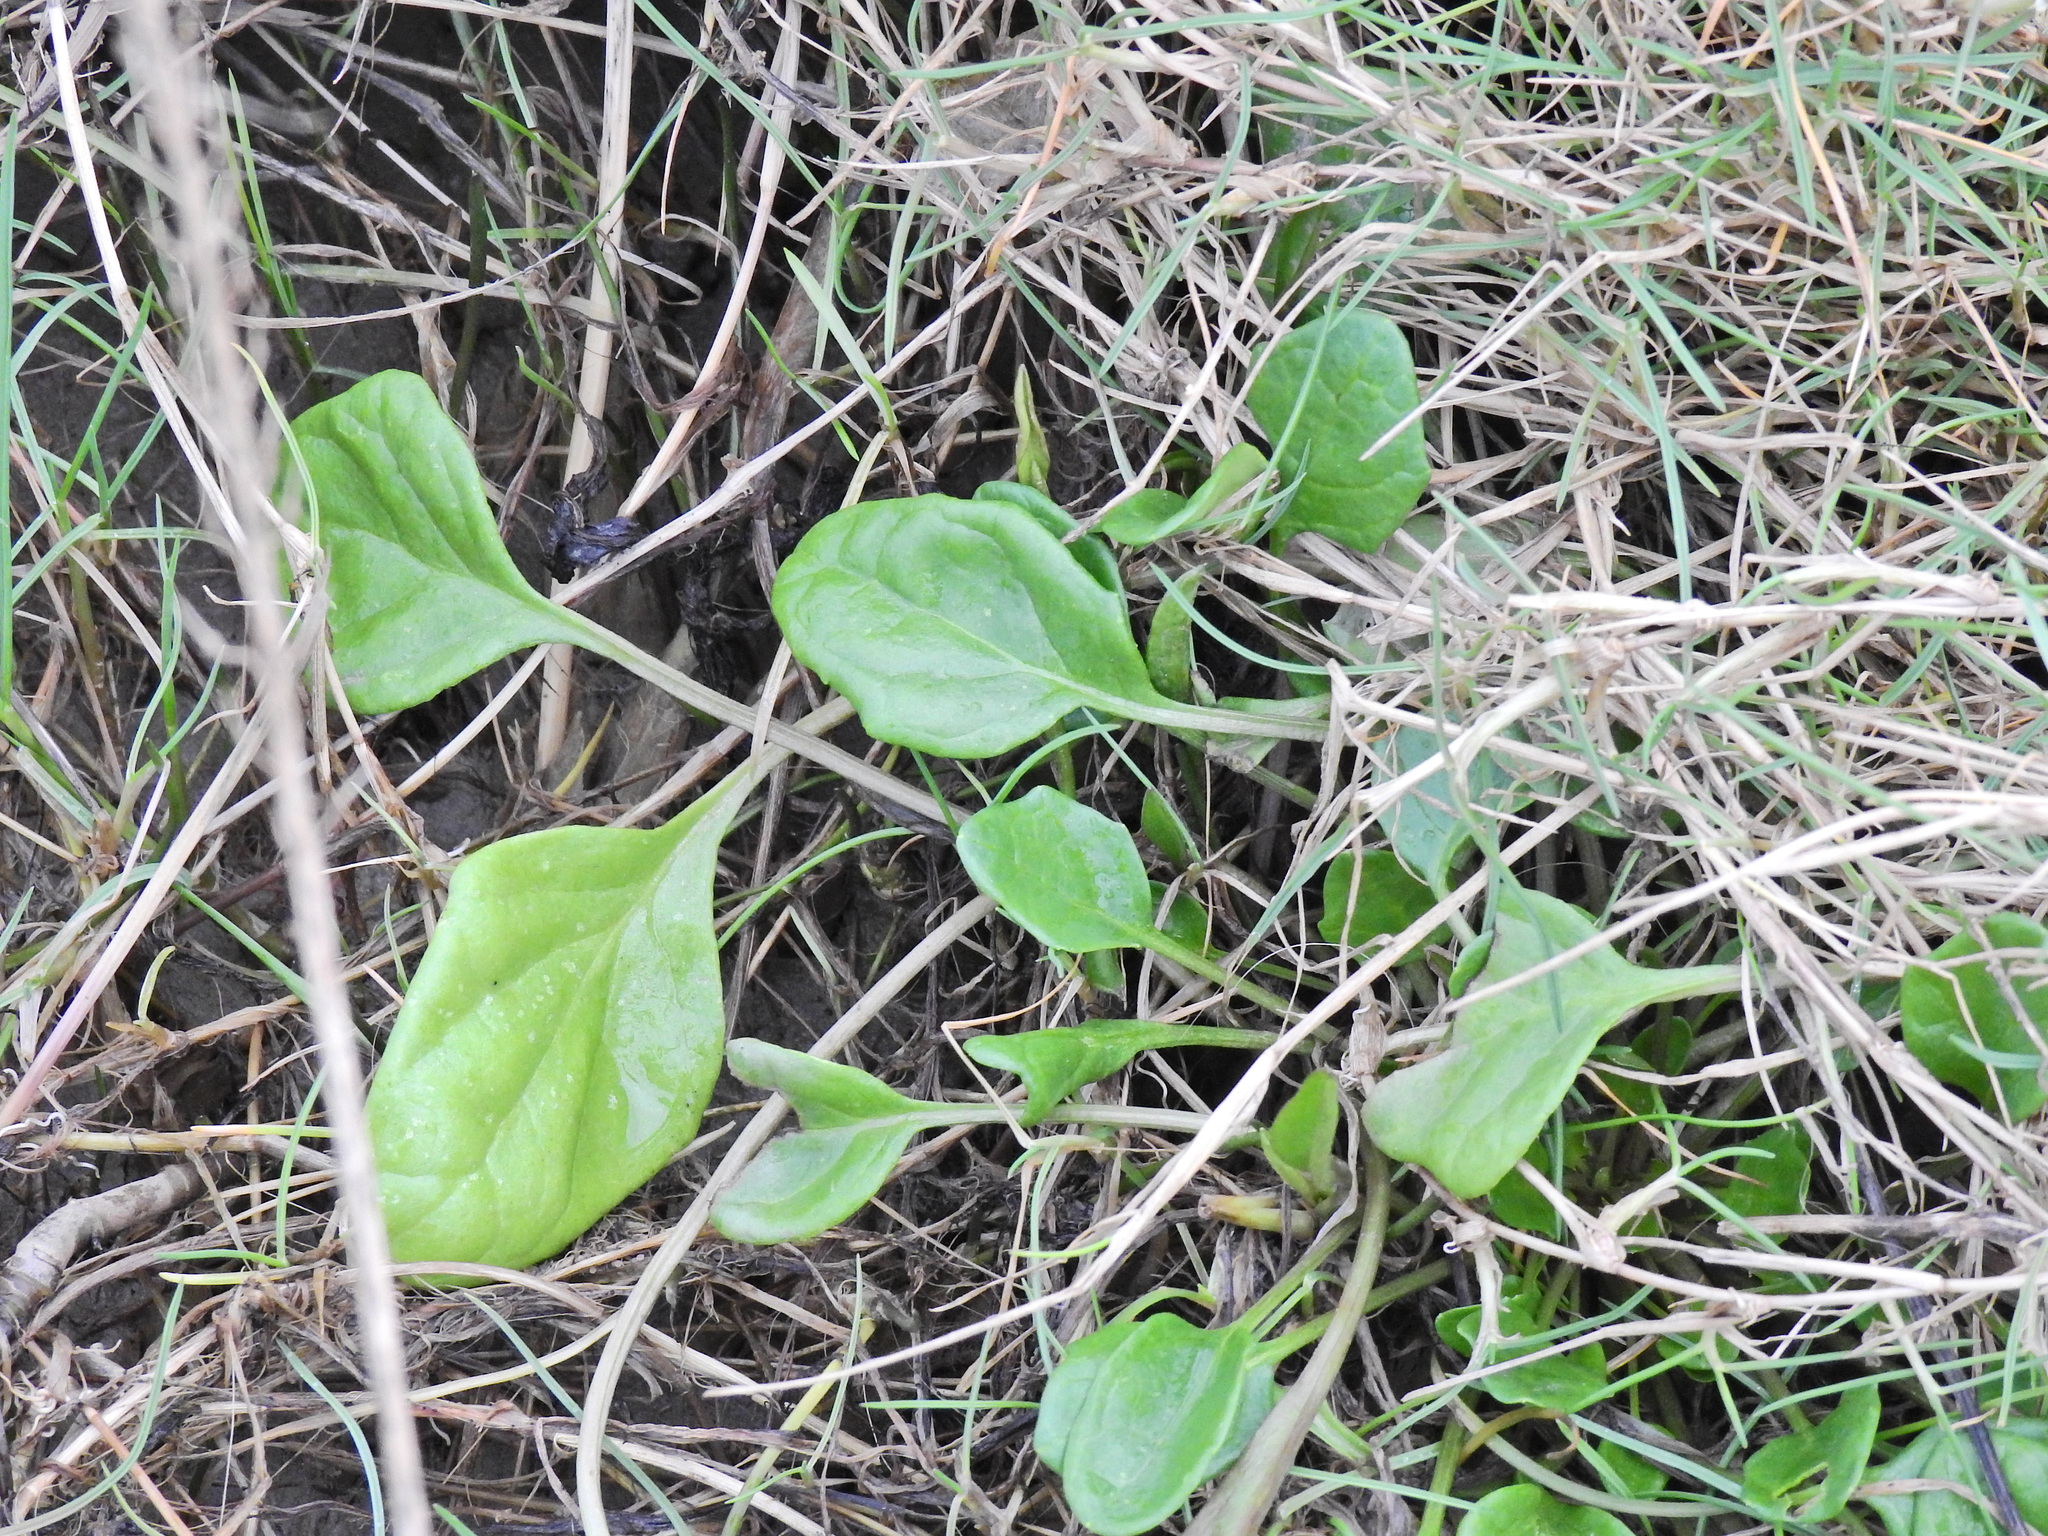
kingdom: Plantae
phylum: Tracheophyta
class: Magnoliopsida
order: Brassicales
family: Brassicaceae
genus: Cochlearia
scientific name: Cochlearia hollandica
